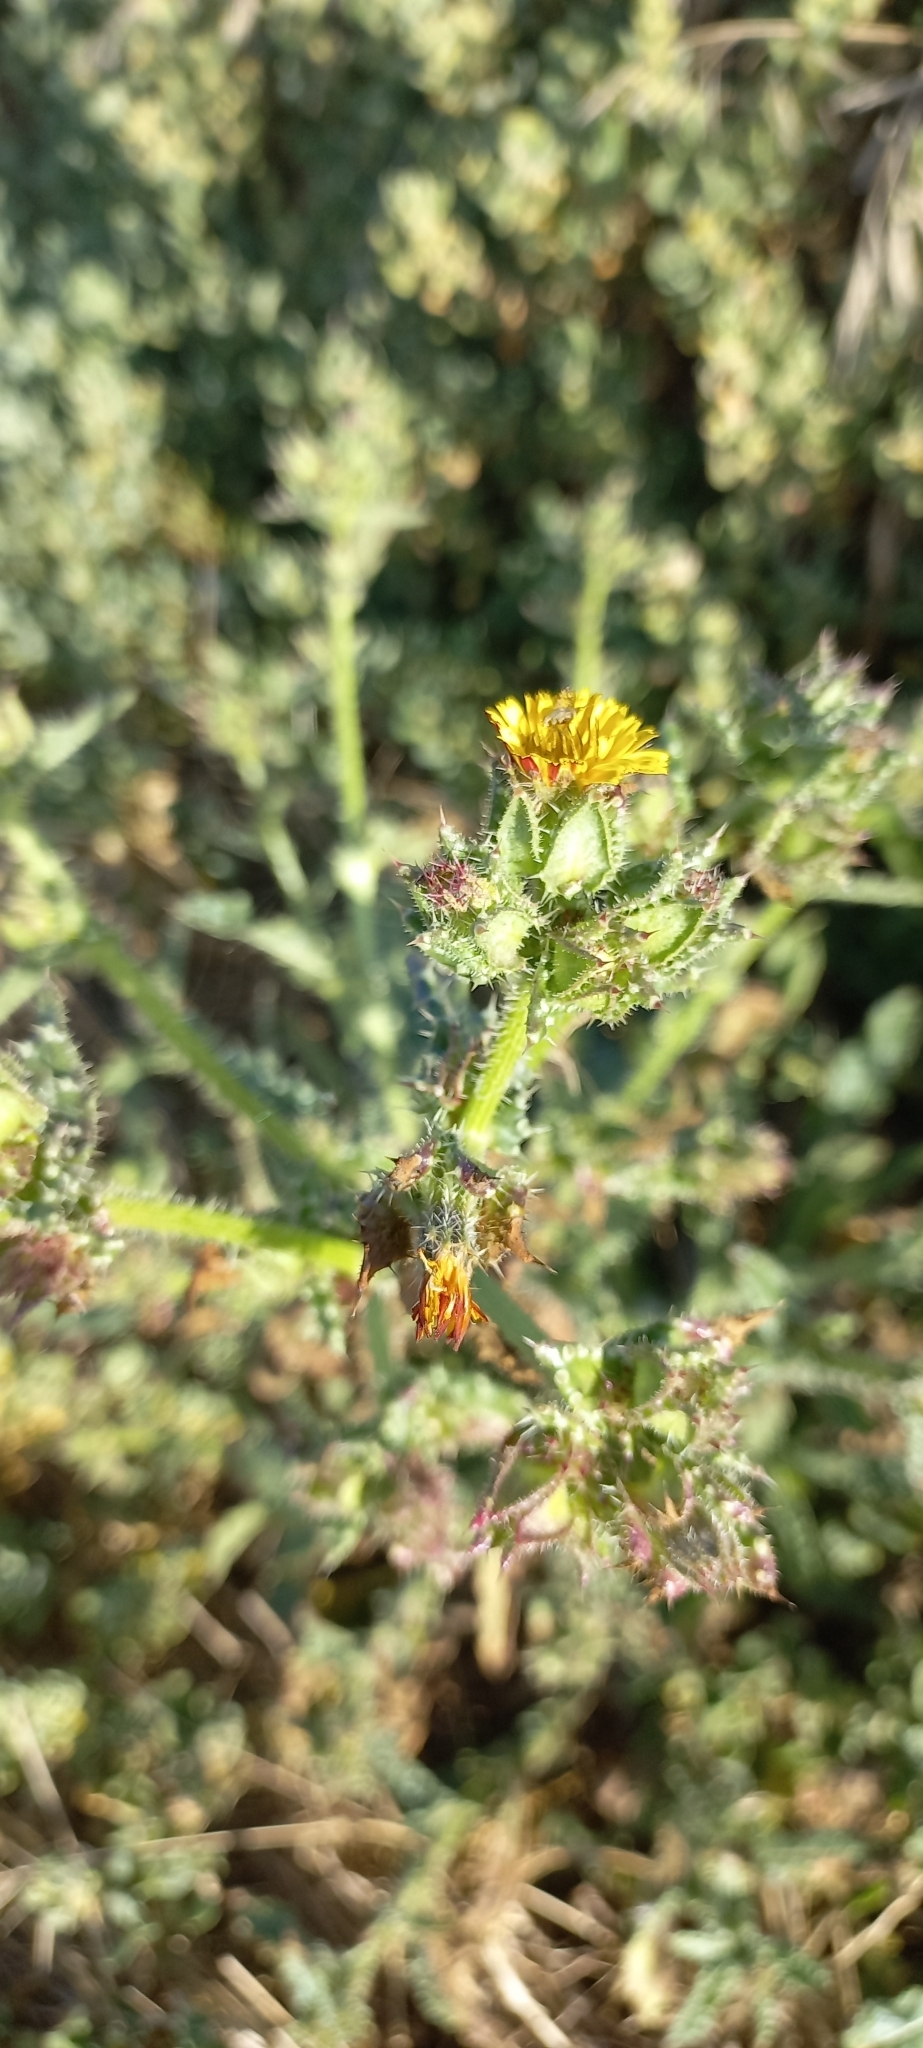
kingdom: Plantae
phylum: Tracheophyta
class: Magnoliopsida
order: Asterales
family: Asteraceae
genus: Helminthotheca
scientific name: Helminthotheca echioides
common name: Ox-tongue
